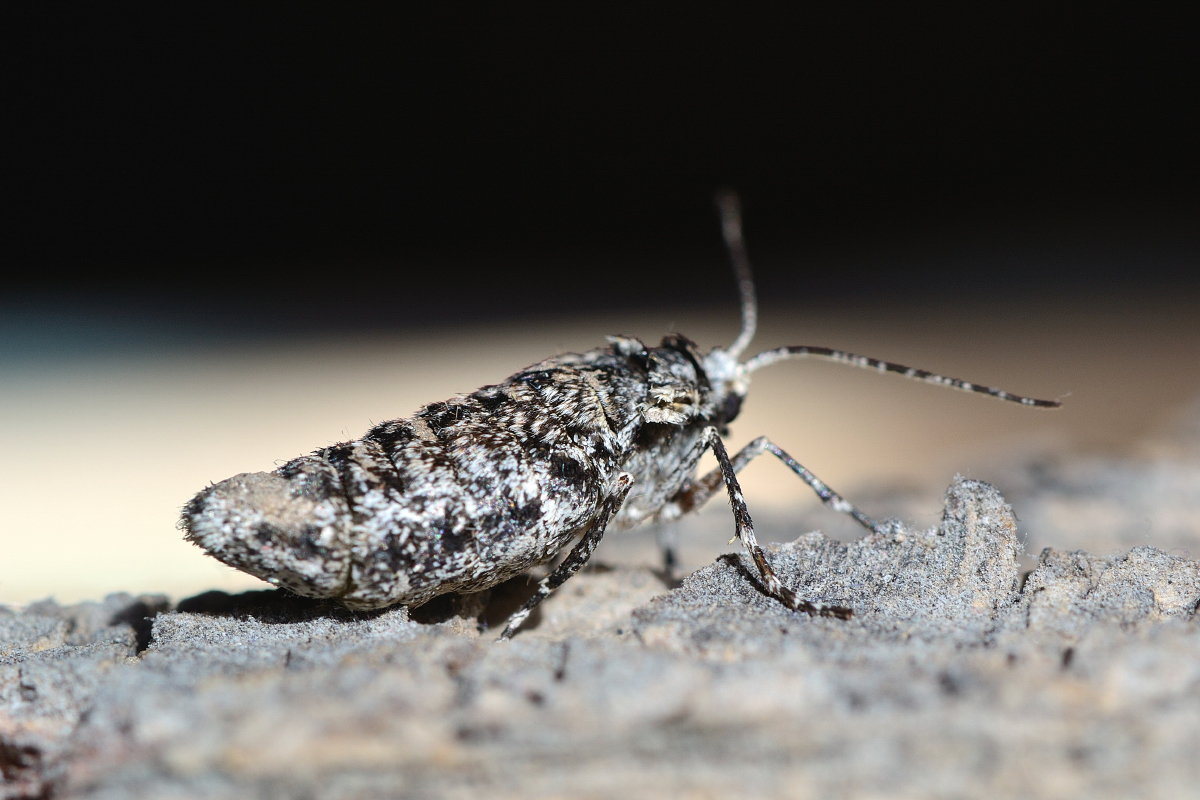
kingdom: Animalia
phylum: Arthropoda
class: Insecta
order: Lepidoptera
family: Geometridae
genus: Phigalia
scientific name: Phigalia pilosaria
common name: Pale brindled beauty
